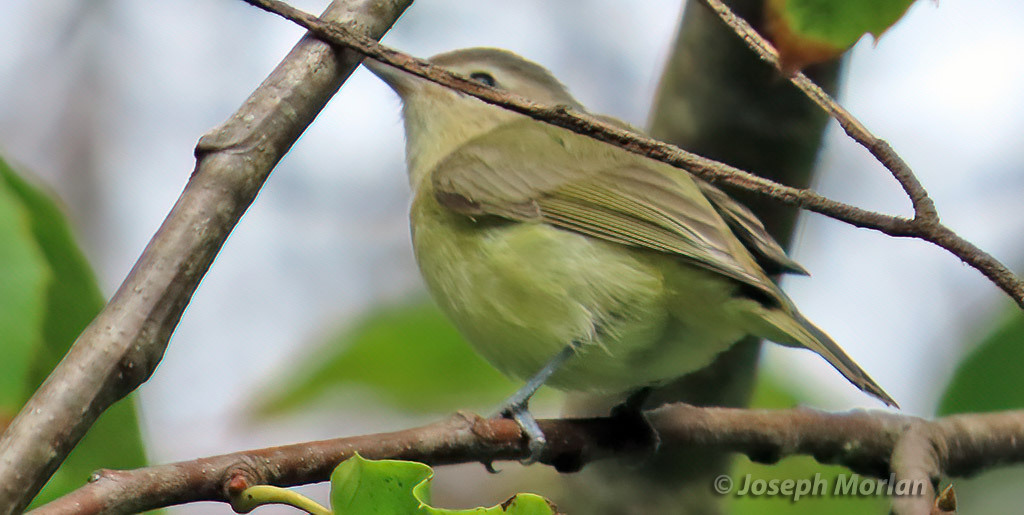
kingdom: Animalia
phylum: Chordata
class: Aves
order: Passeriformes
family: Vireonidae
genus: Vireo
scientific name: Vireo gilvus
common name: Warbling vireo
